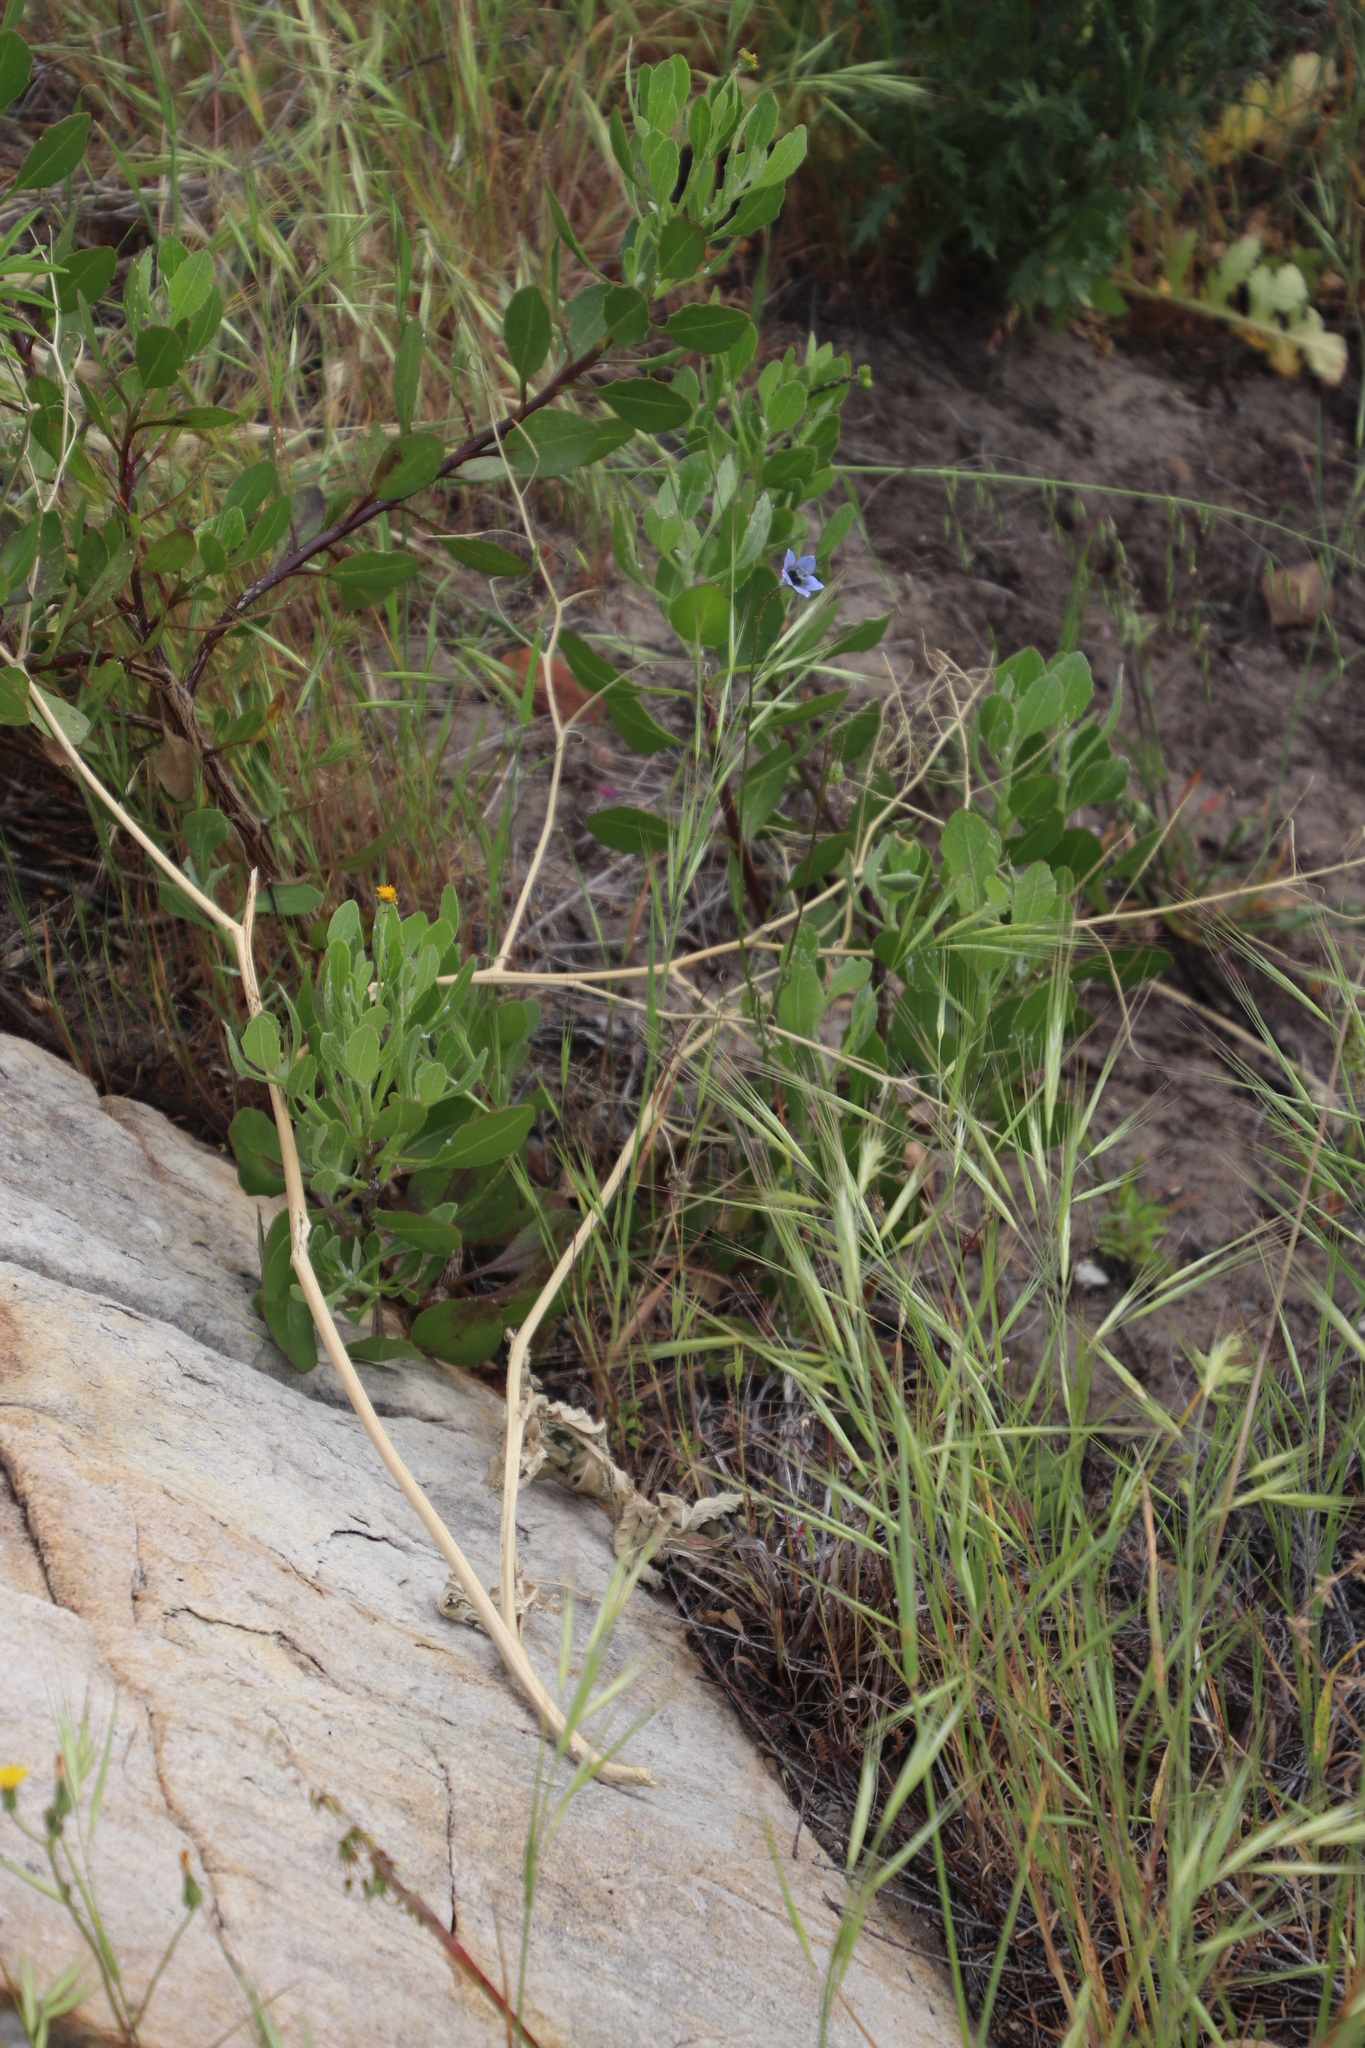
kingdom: Plantae
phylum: Tracheophyta
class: Magnoliopsida
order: Asterales
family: Campanulaceae
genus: Wahlenbergia
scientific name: Wahlenbergia capensis
